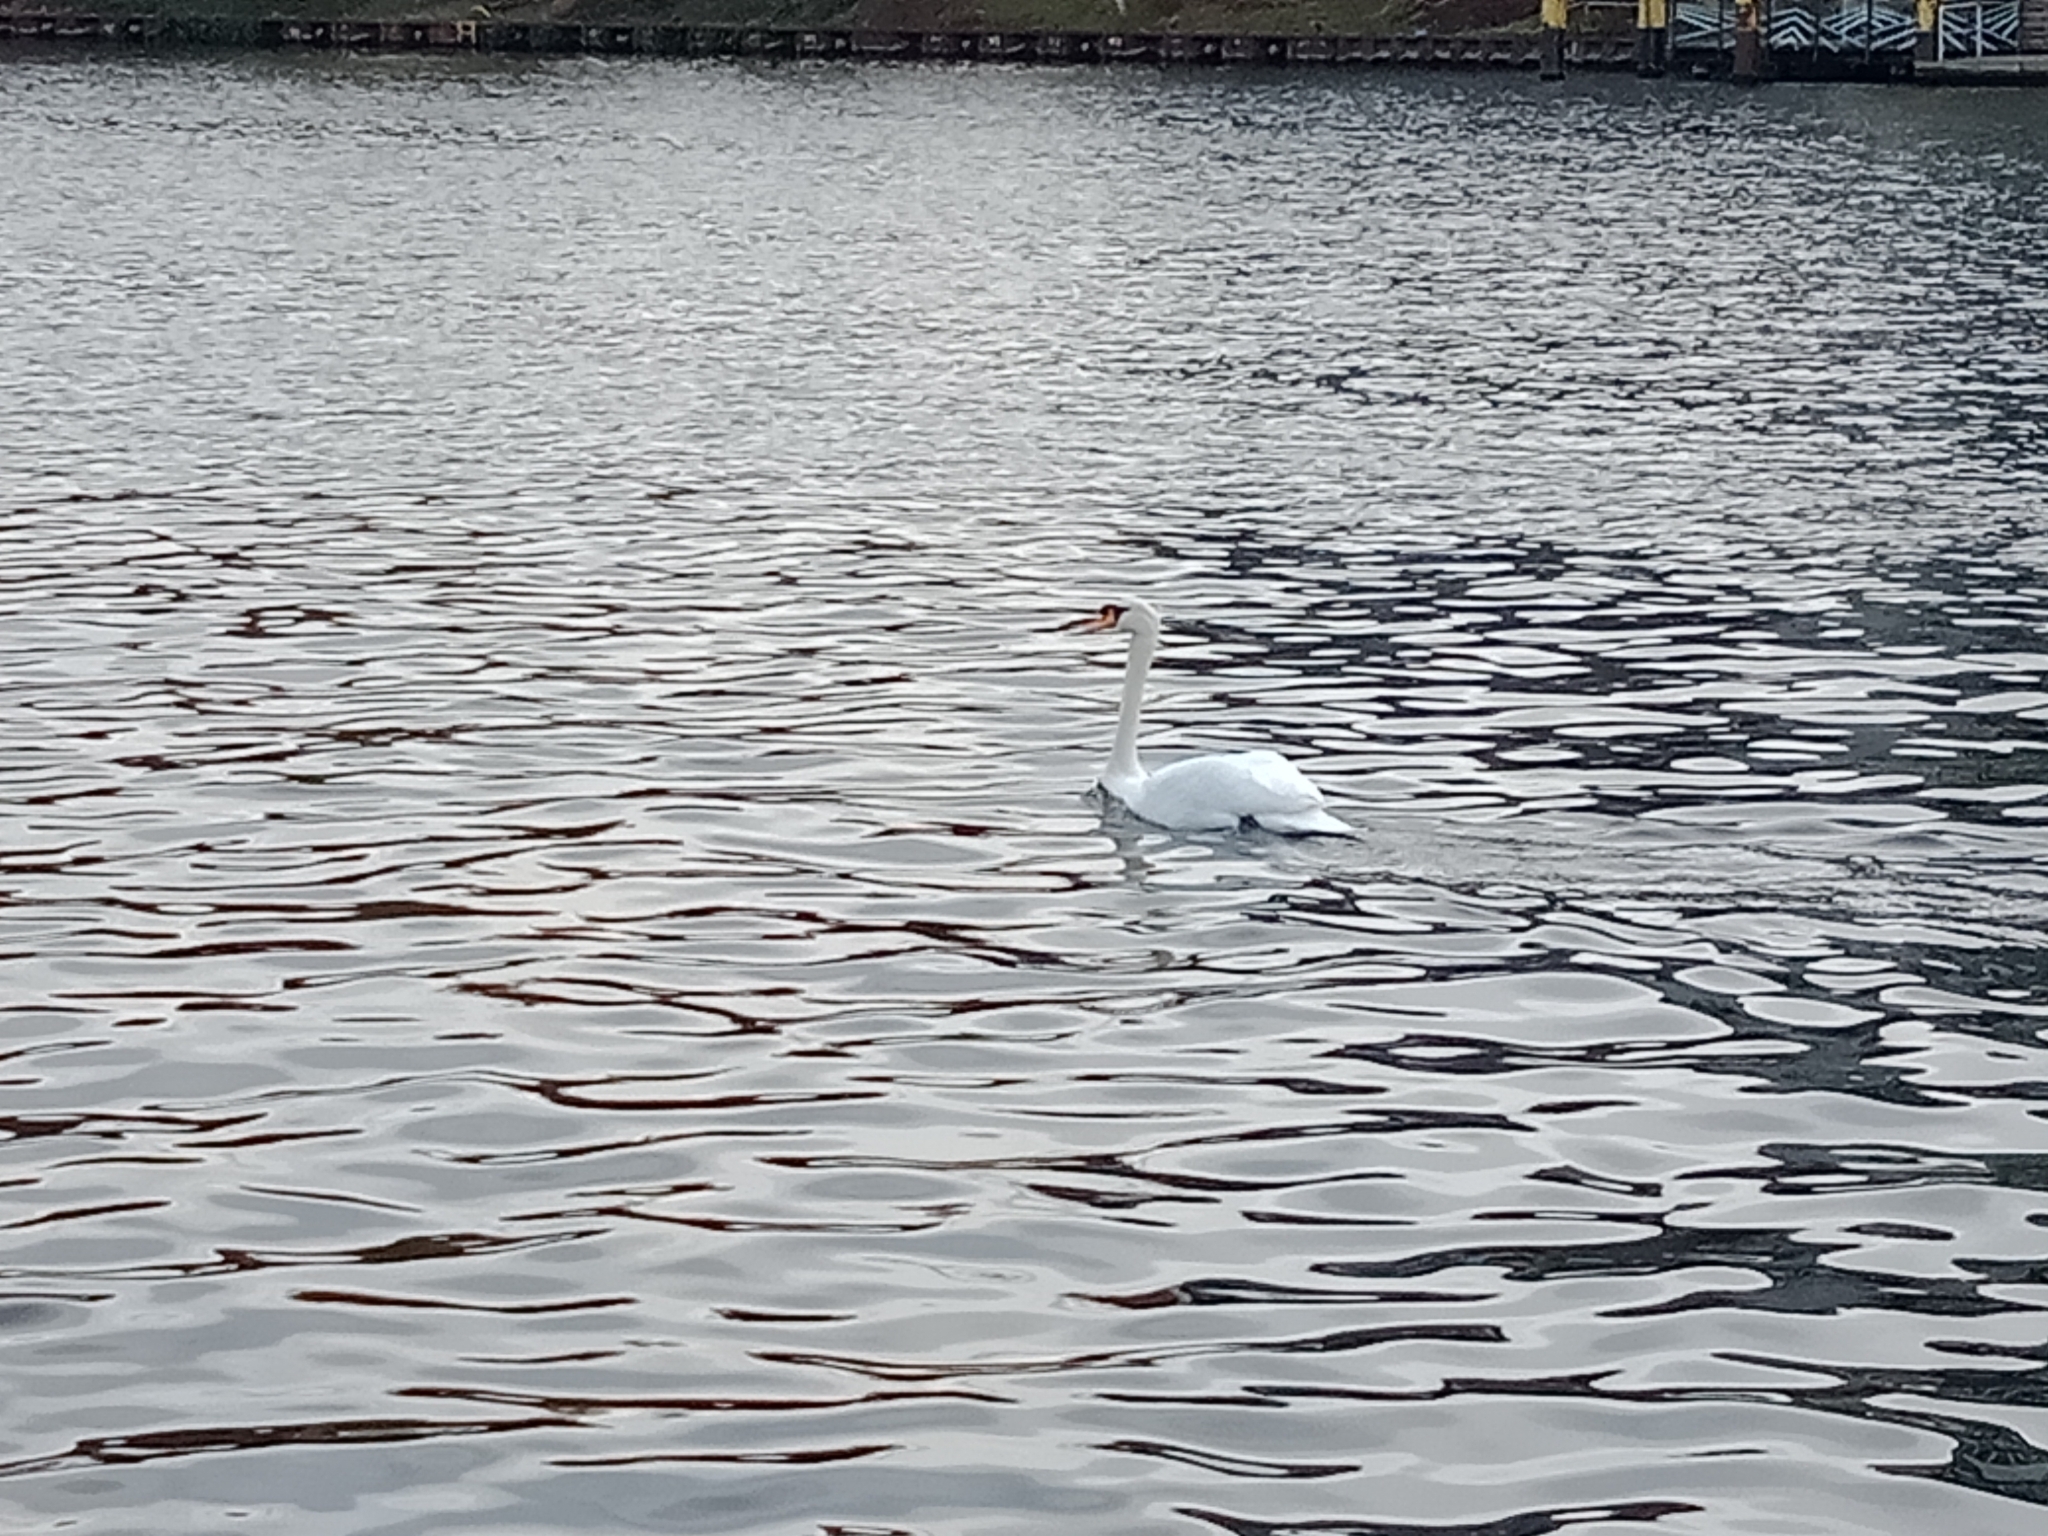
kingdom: Animalia
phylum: Chordata
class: Aves
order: Anseriformes
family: Anatidae
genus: Cygnus
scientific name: Cygnus olor
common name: Mute swan
